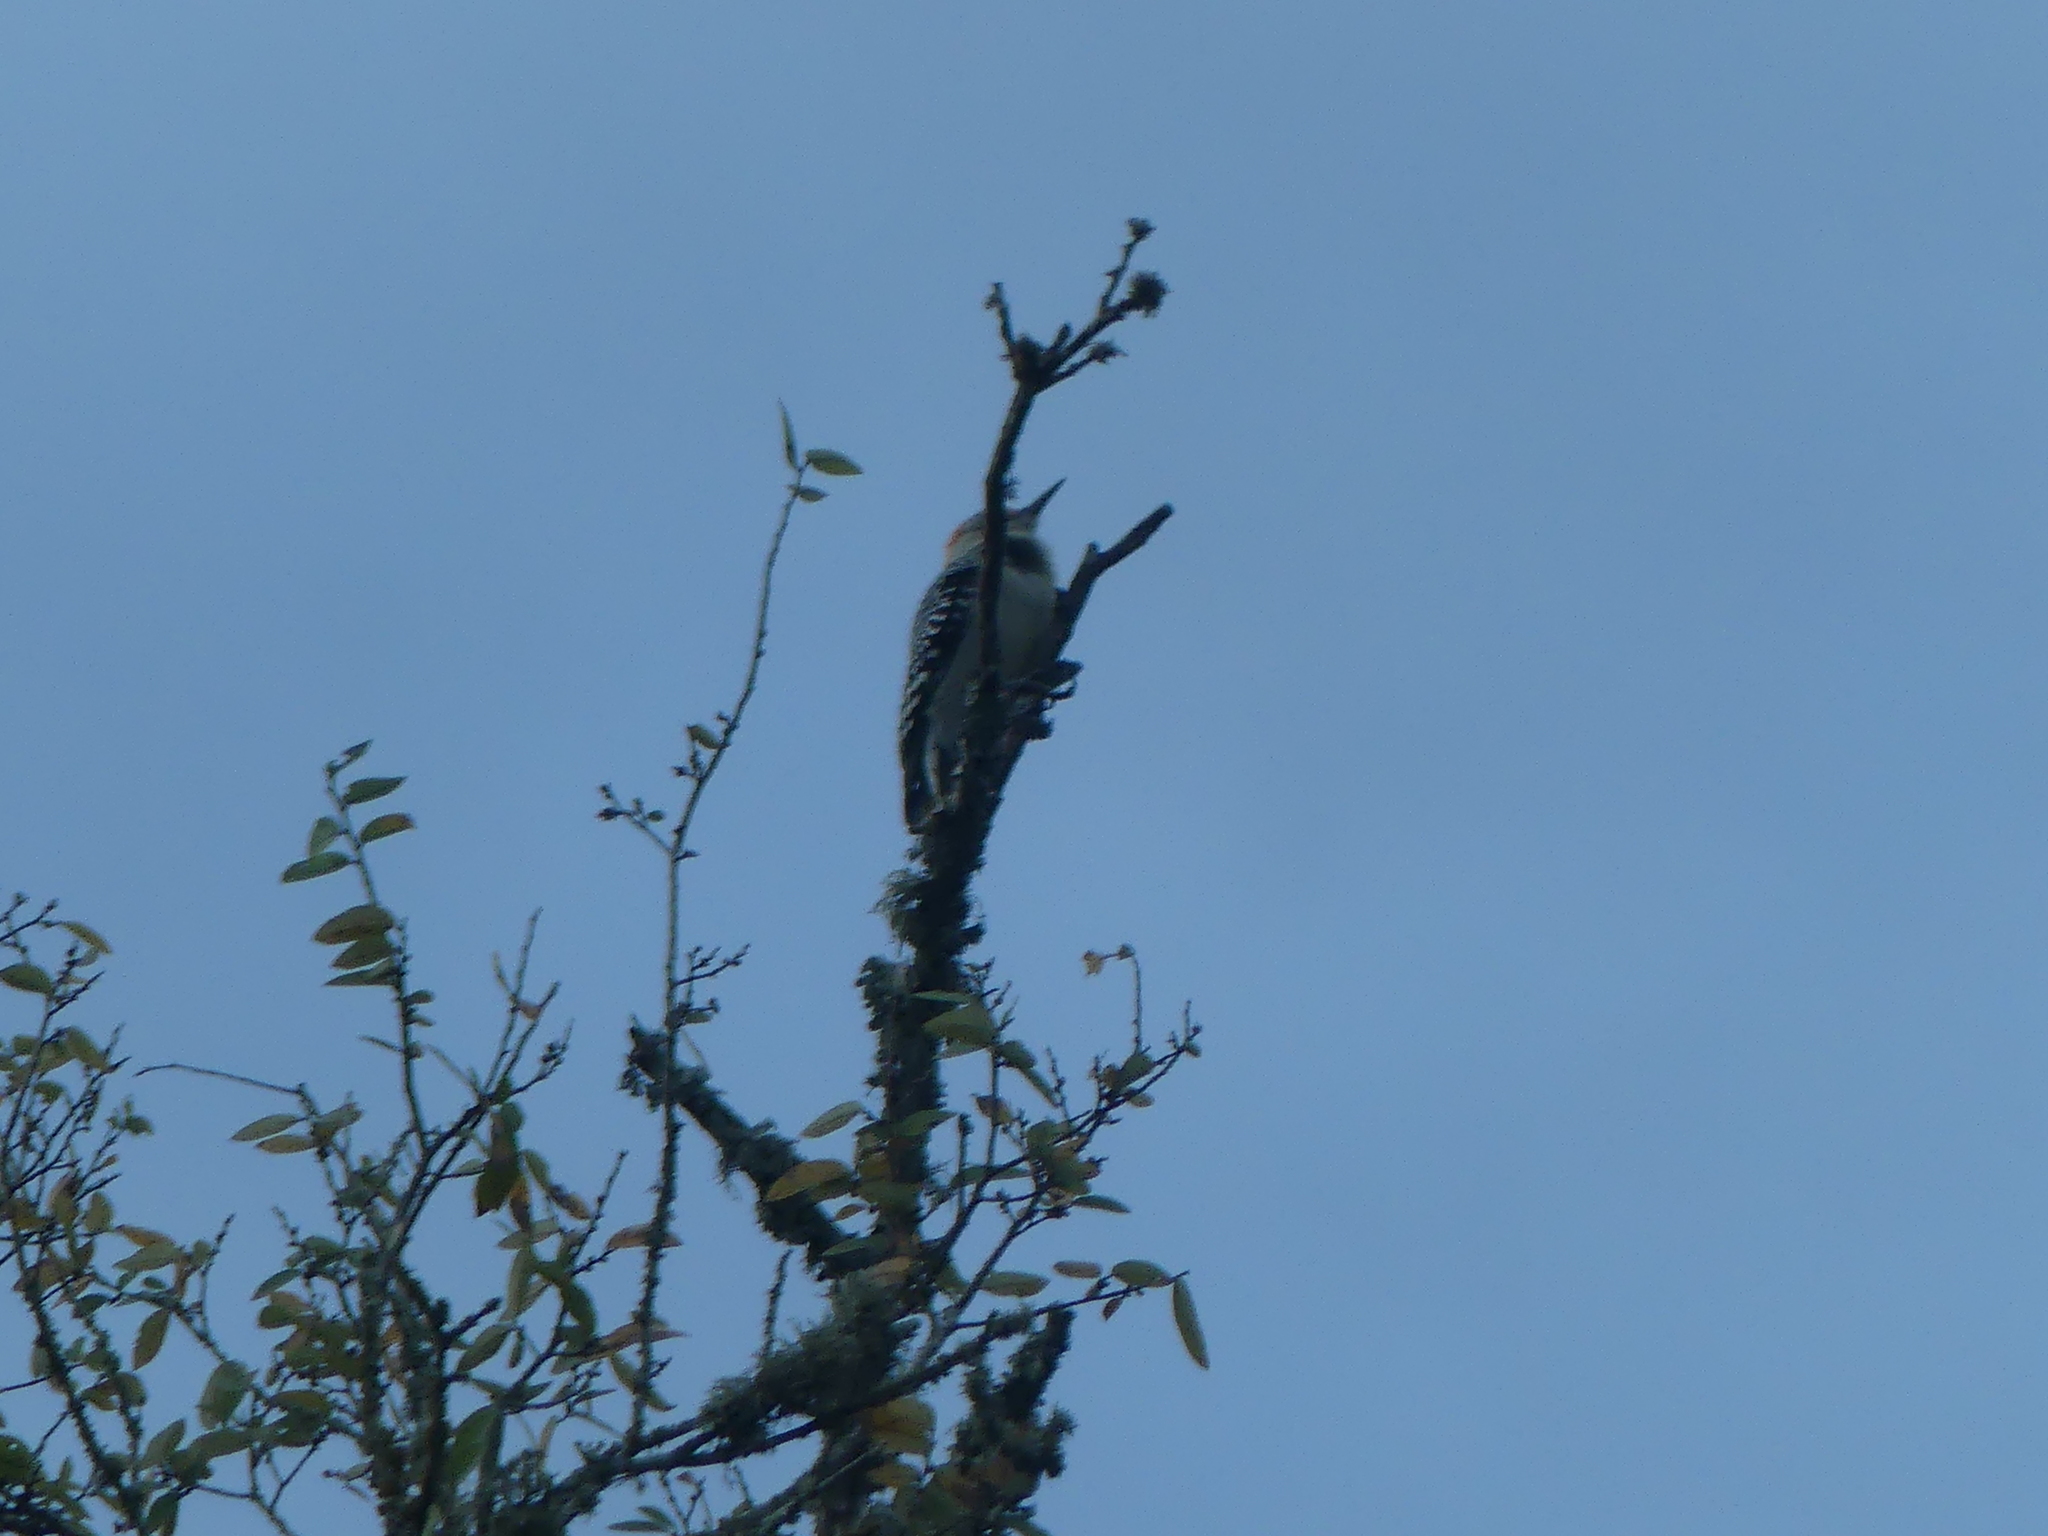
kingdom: Animalia
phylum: Chordata
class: Aves
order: Piciformes
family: Picidae
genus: Melanerpes
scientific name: Melanerpes carolinus
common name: Red-bellied woodpecker
